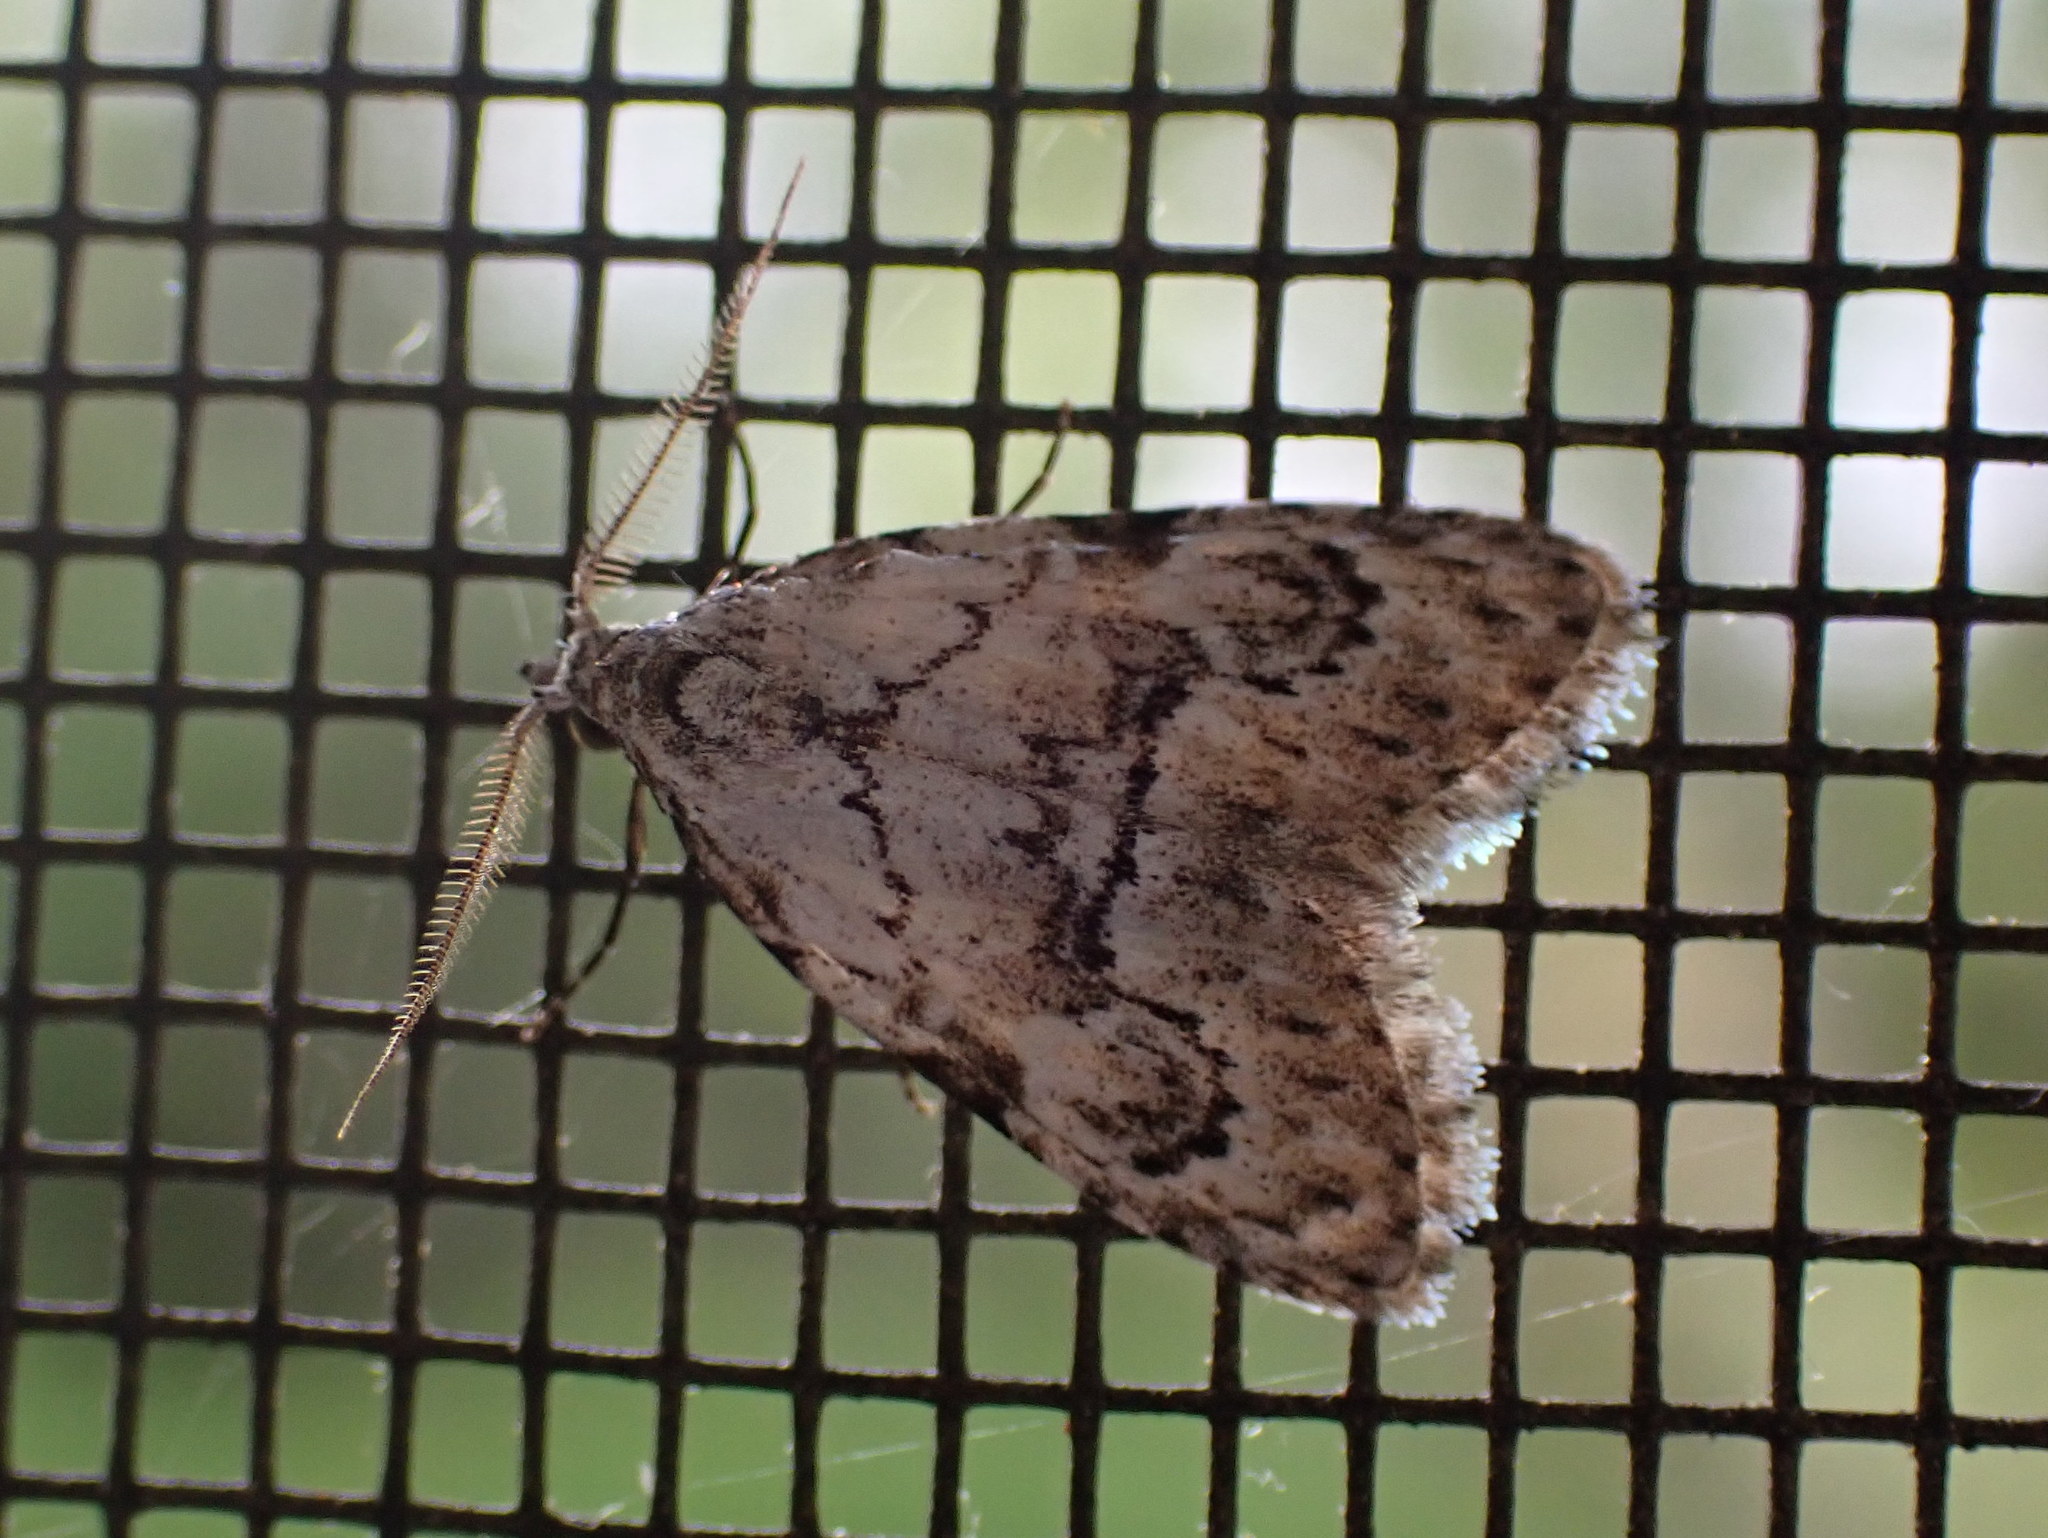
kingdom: Animalia
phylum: Arthropoda
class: Insecta
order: Lepidoptera
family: Nolidae
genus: Meganola
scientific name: Meganola minuscula
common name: Confused meganola moth
